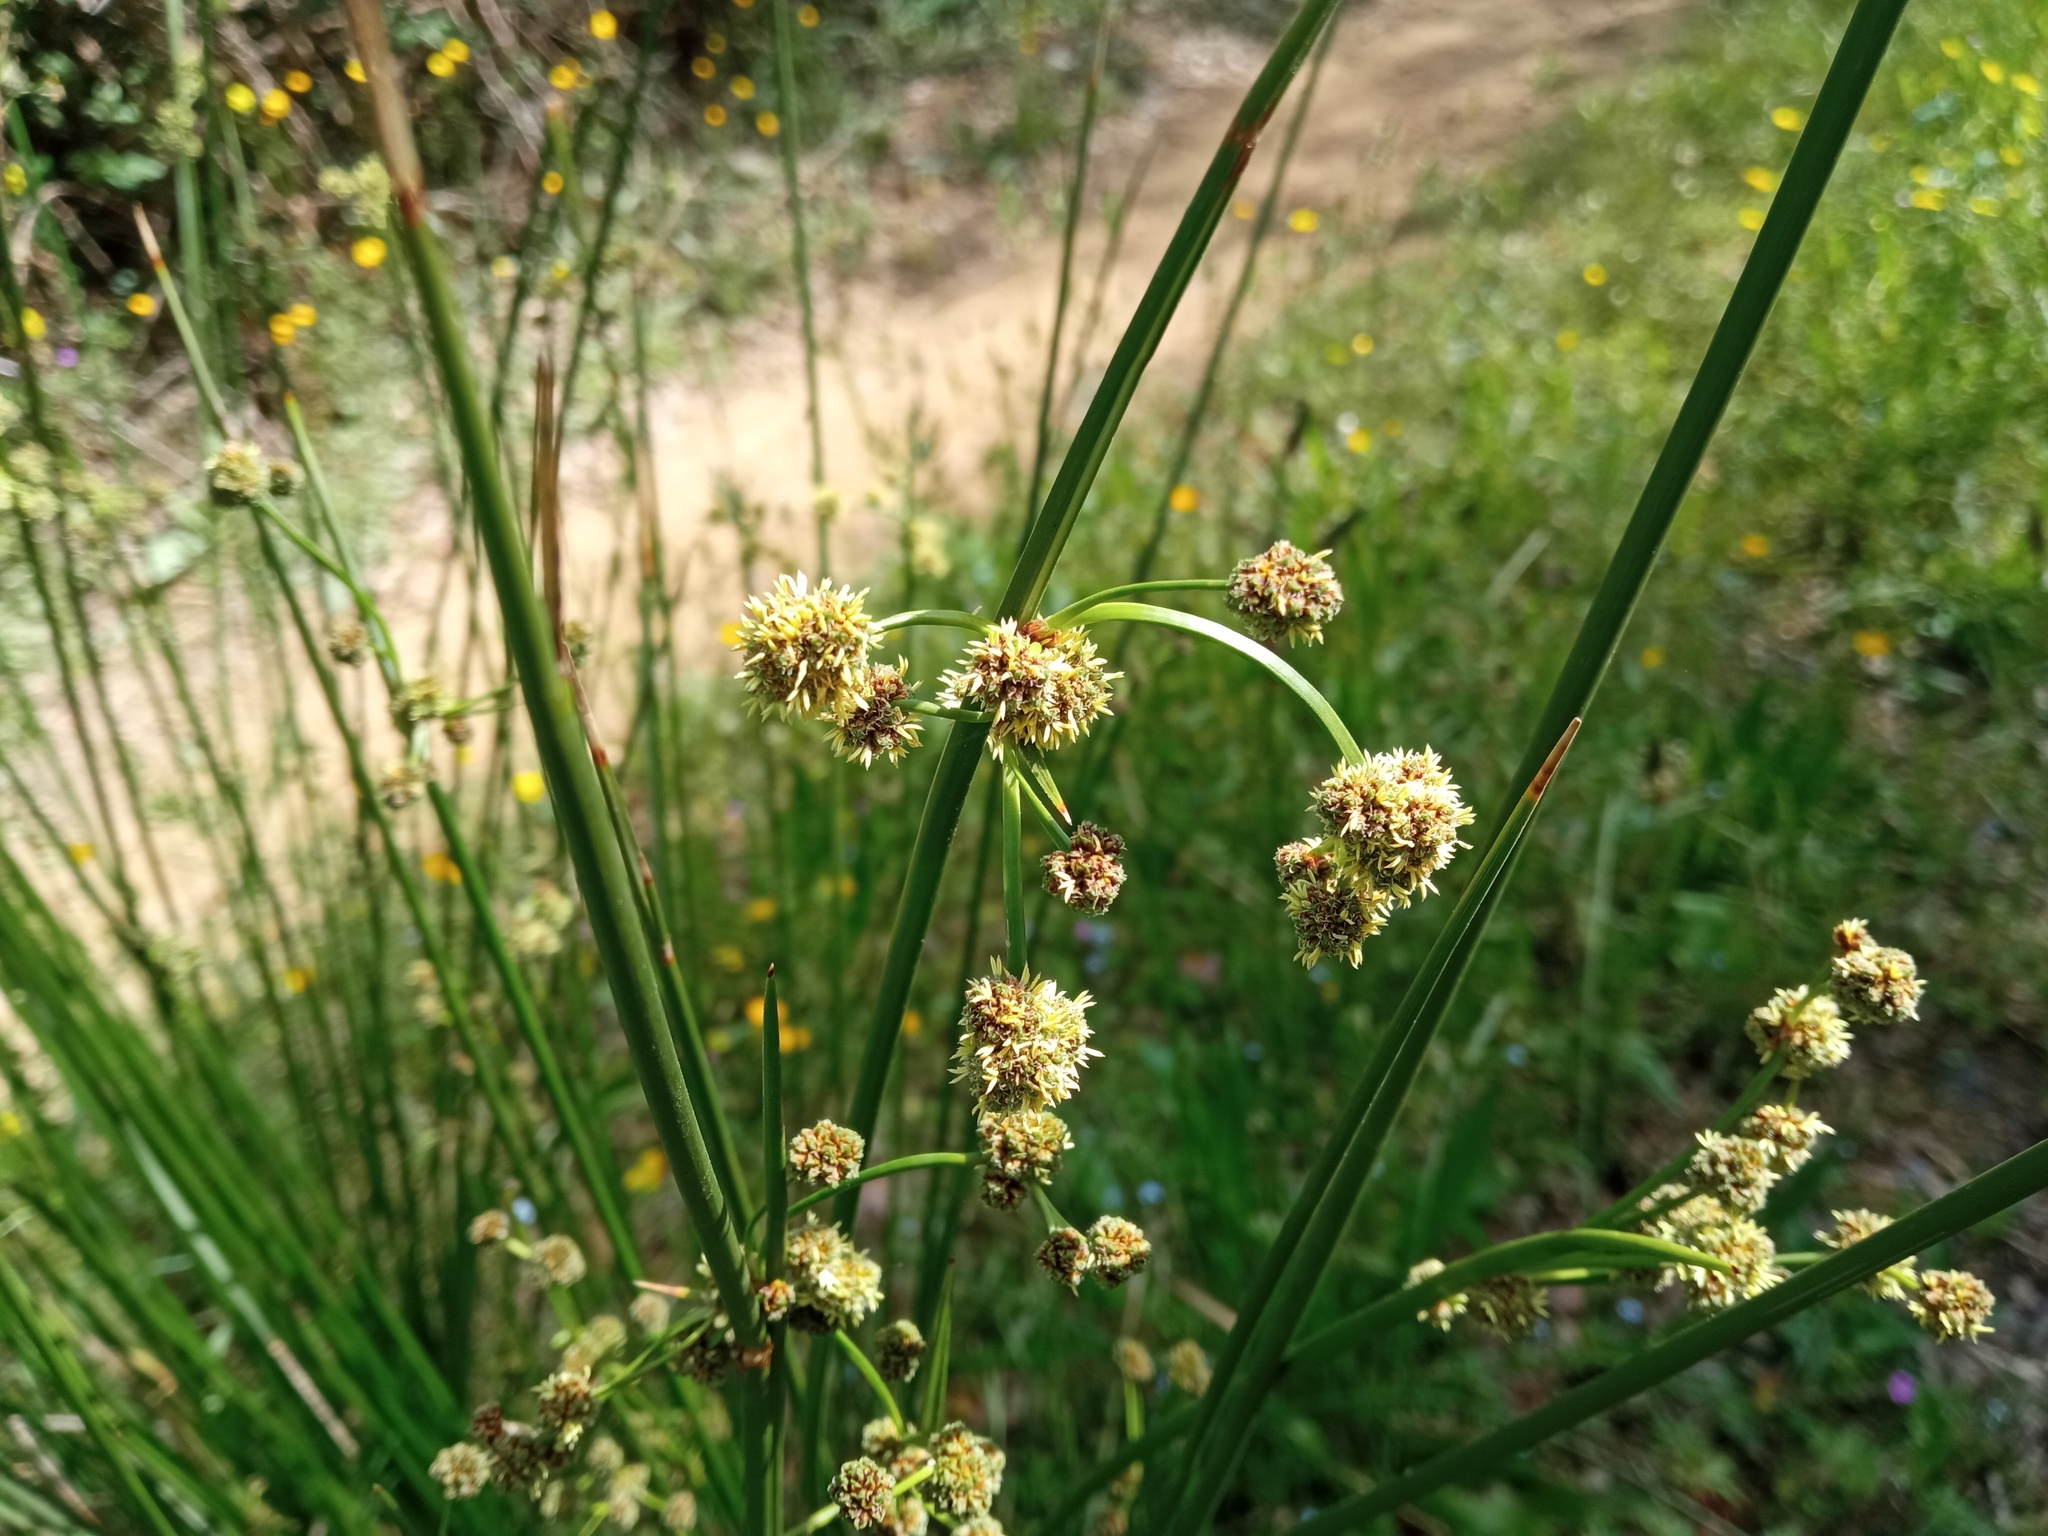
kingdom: Plantae
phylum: Tracheophyta
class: Liliopsida
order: Poales
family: Cyperaceae
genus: Scirpoides
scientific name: Scirpoides holoschoenus
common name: Round-headed club-rush
